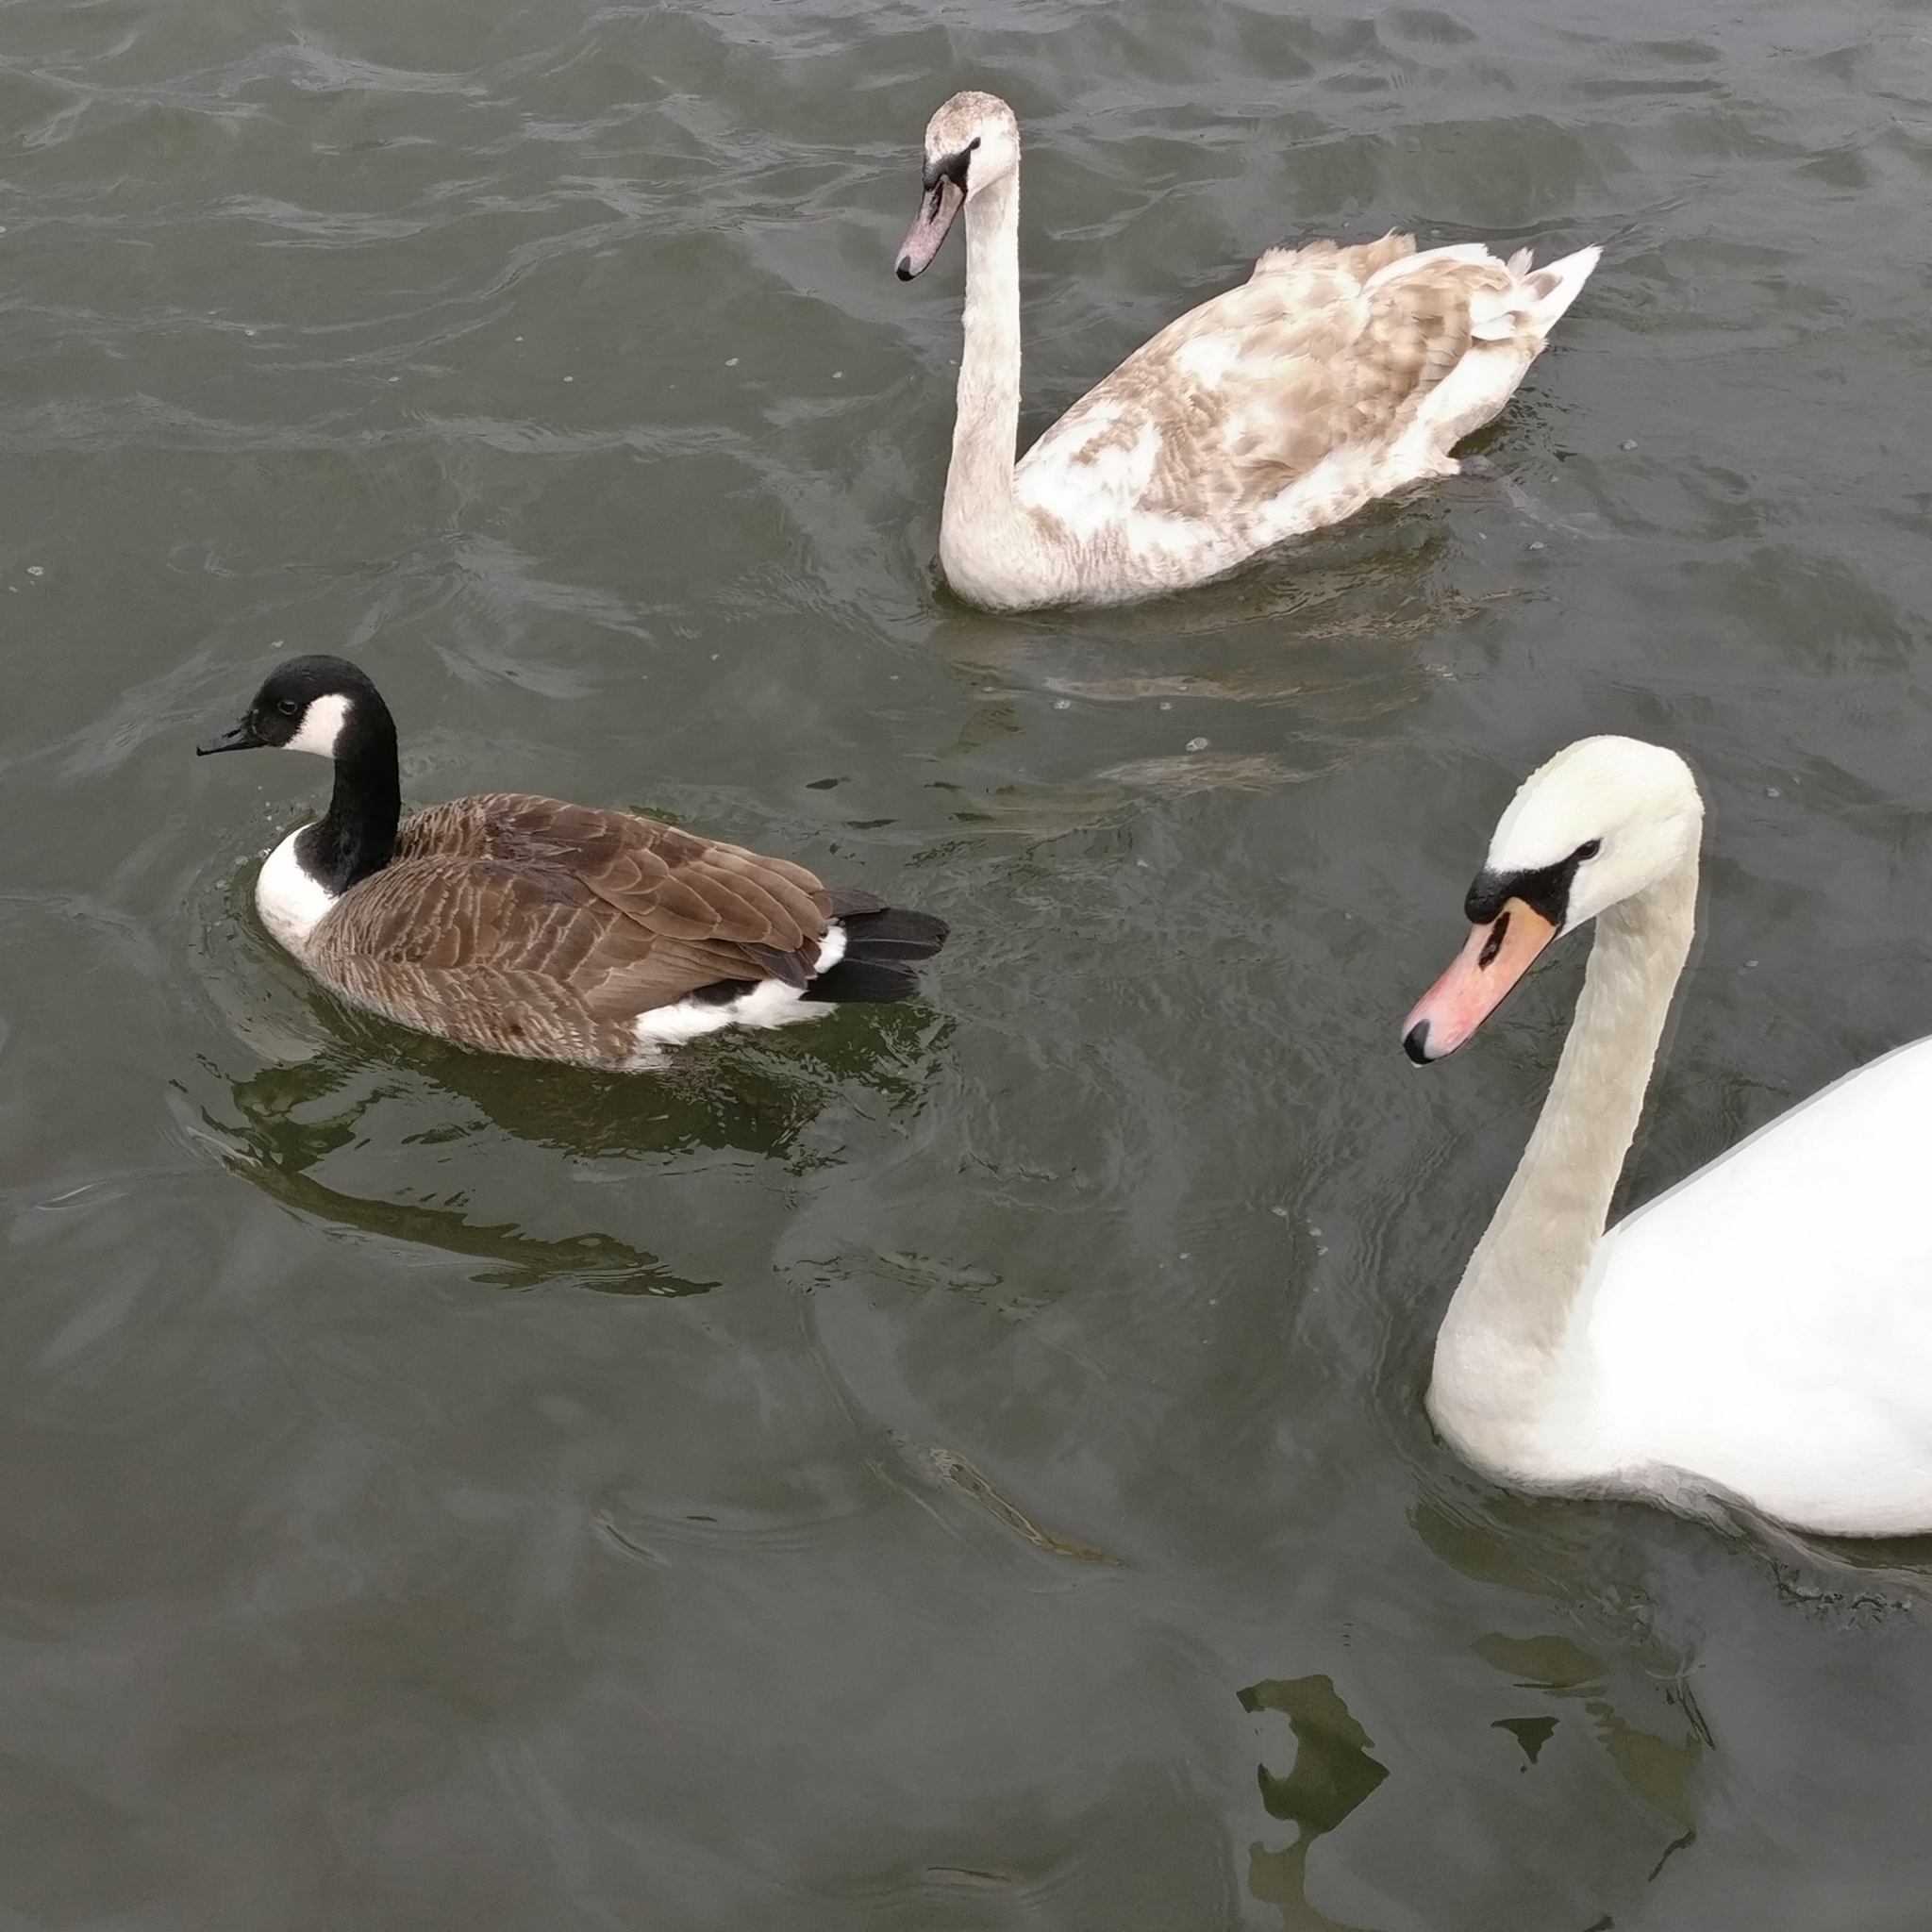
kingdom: Animalia
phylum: Chordata
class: Aves
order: Anseriformes
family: Anatidae
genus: Branta
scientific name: Branta canadensis
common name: Canada goose
